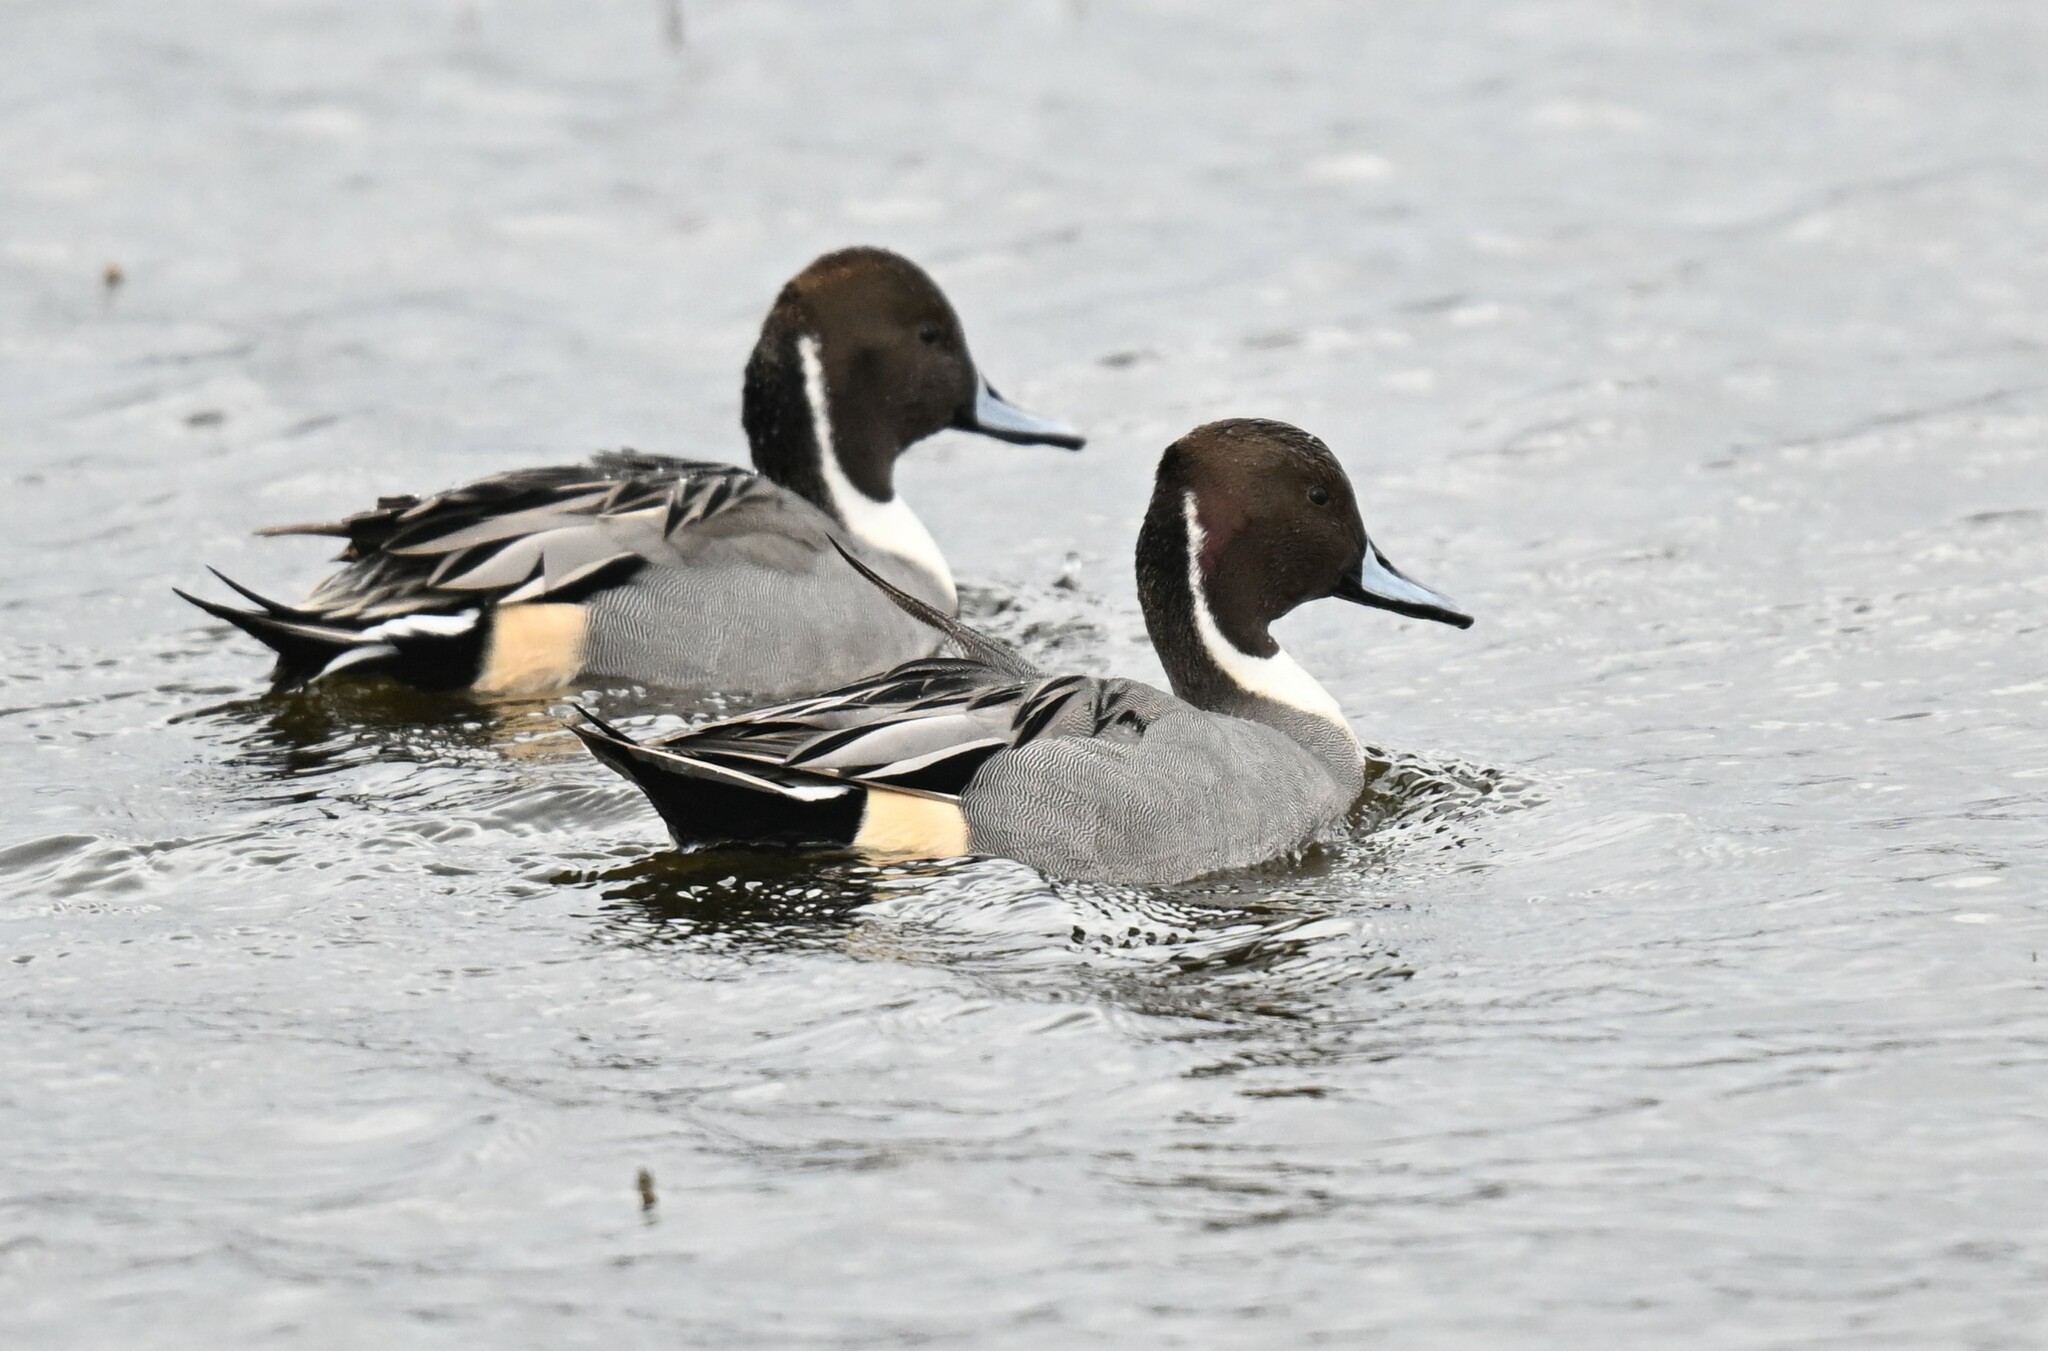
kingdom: Animalia
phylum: Chordata
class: Aves
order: Anseriformes
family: Anatidae
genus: Anas
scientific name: Anas acuta
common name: Northern pintail
